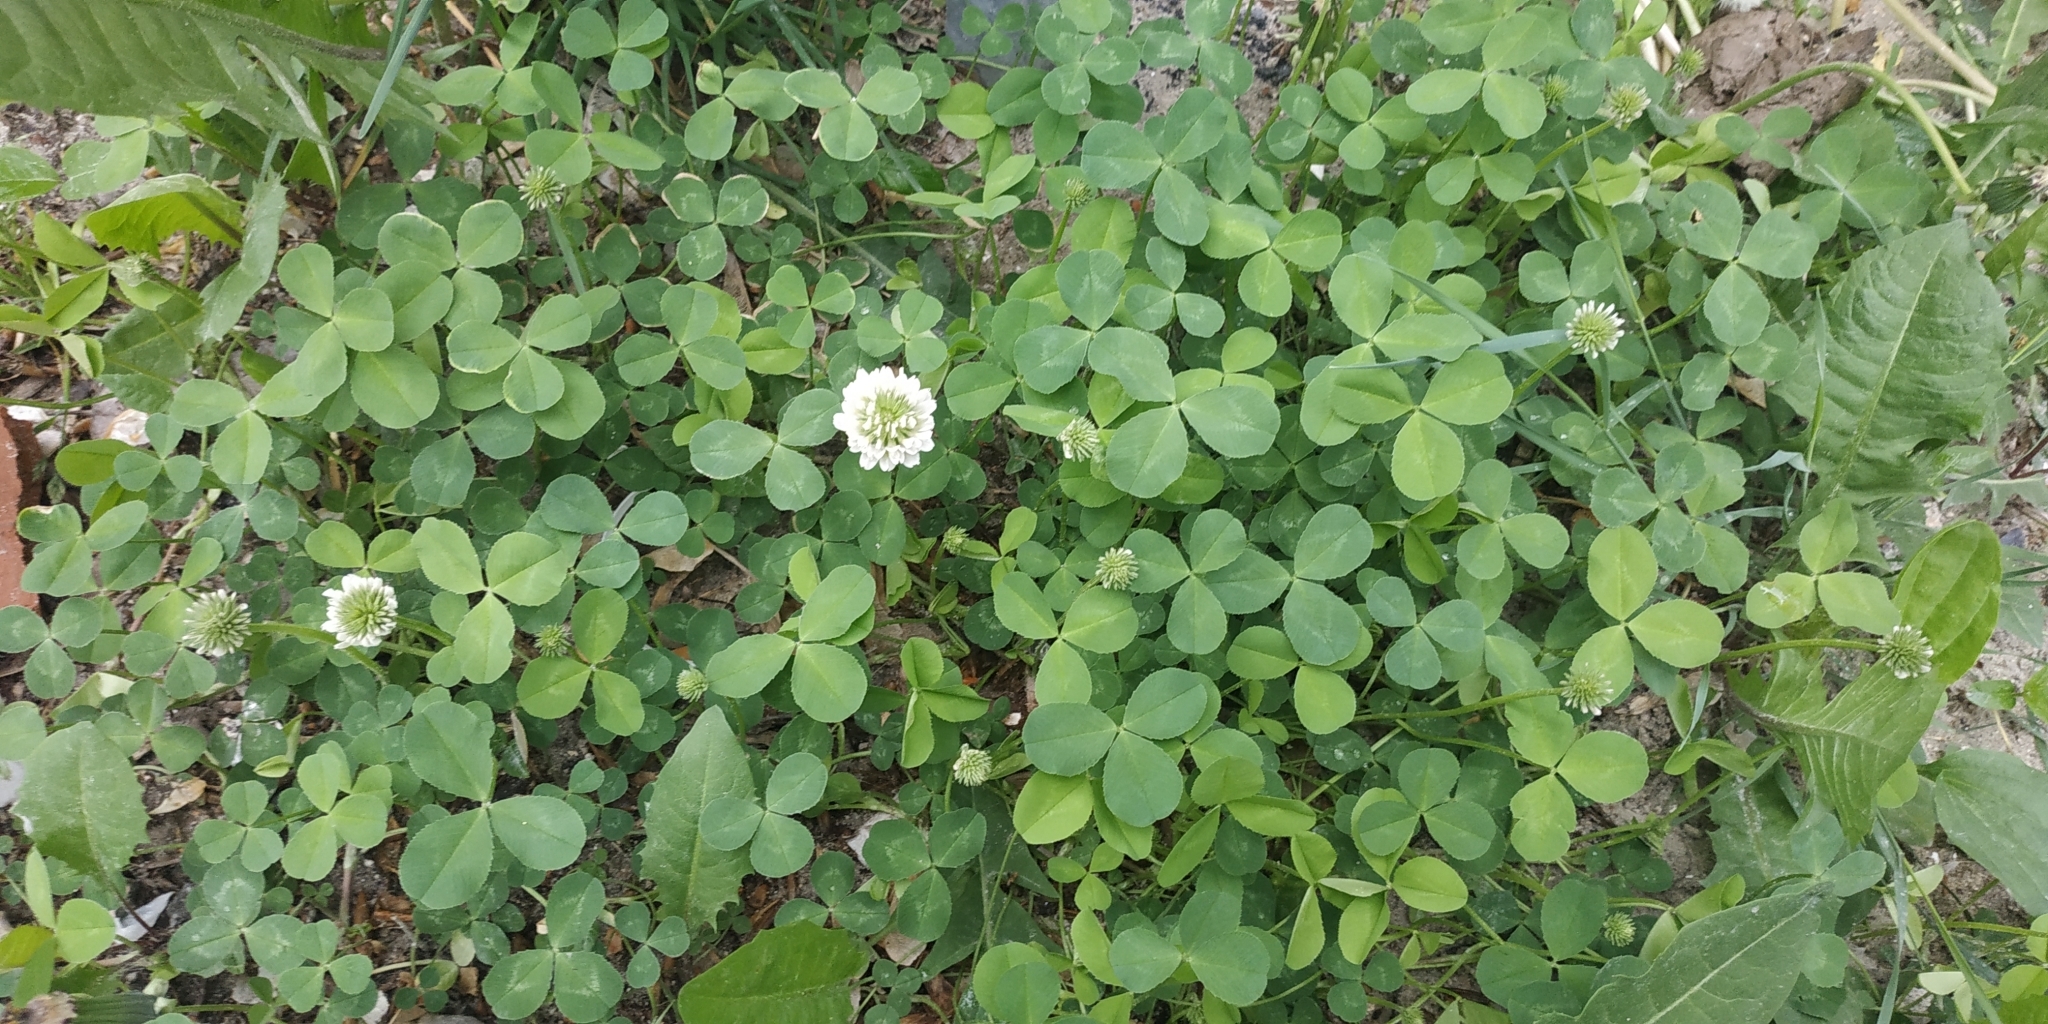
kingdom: Plantae
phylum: Tracheophyta
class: Magnoliopsida
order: Fabales
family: Fabaceae
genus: Trifolium
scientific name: Trifolium repens
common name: White clover
